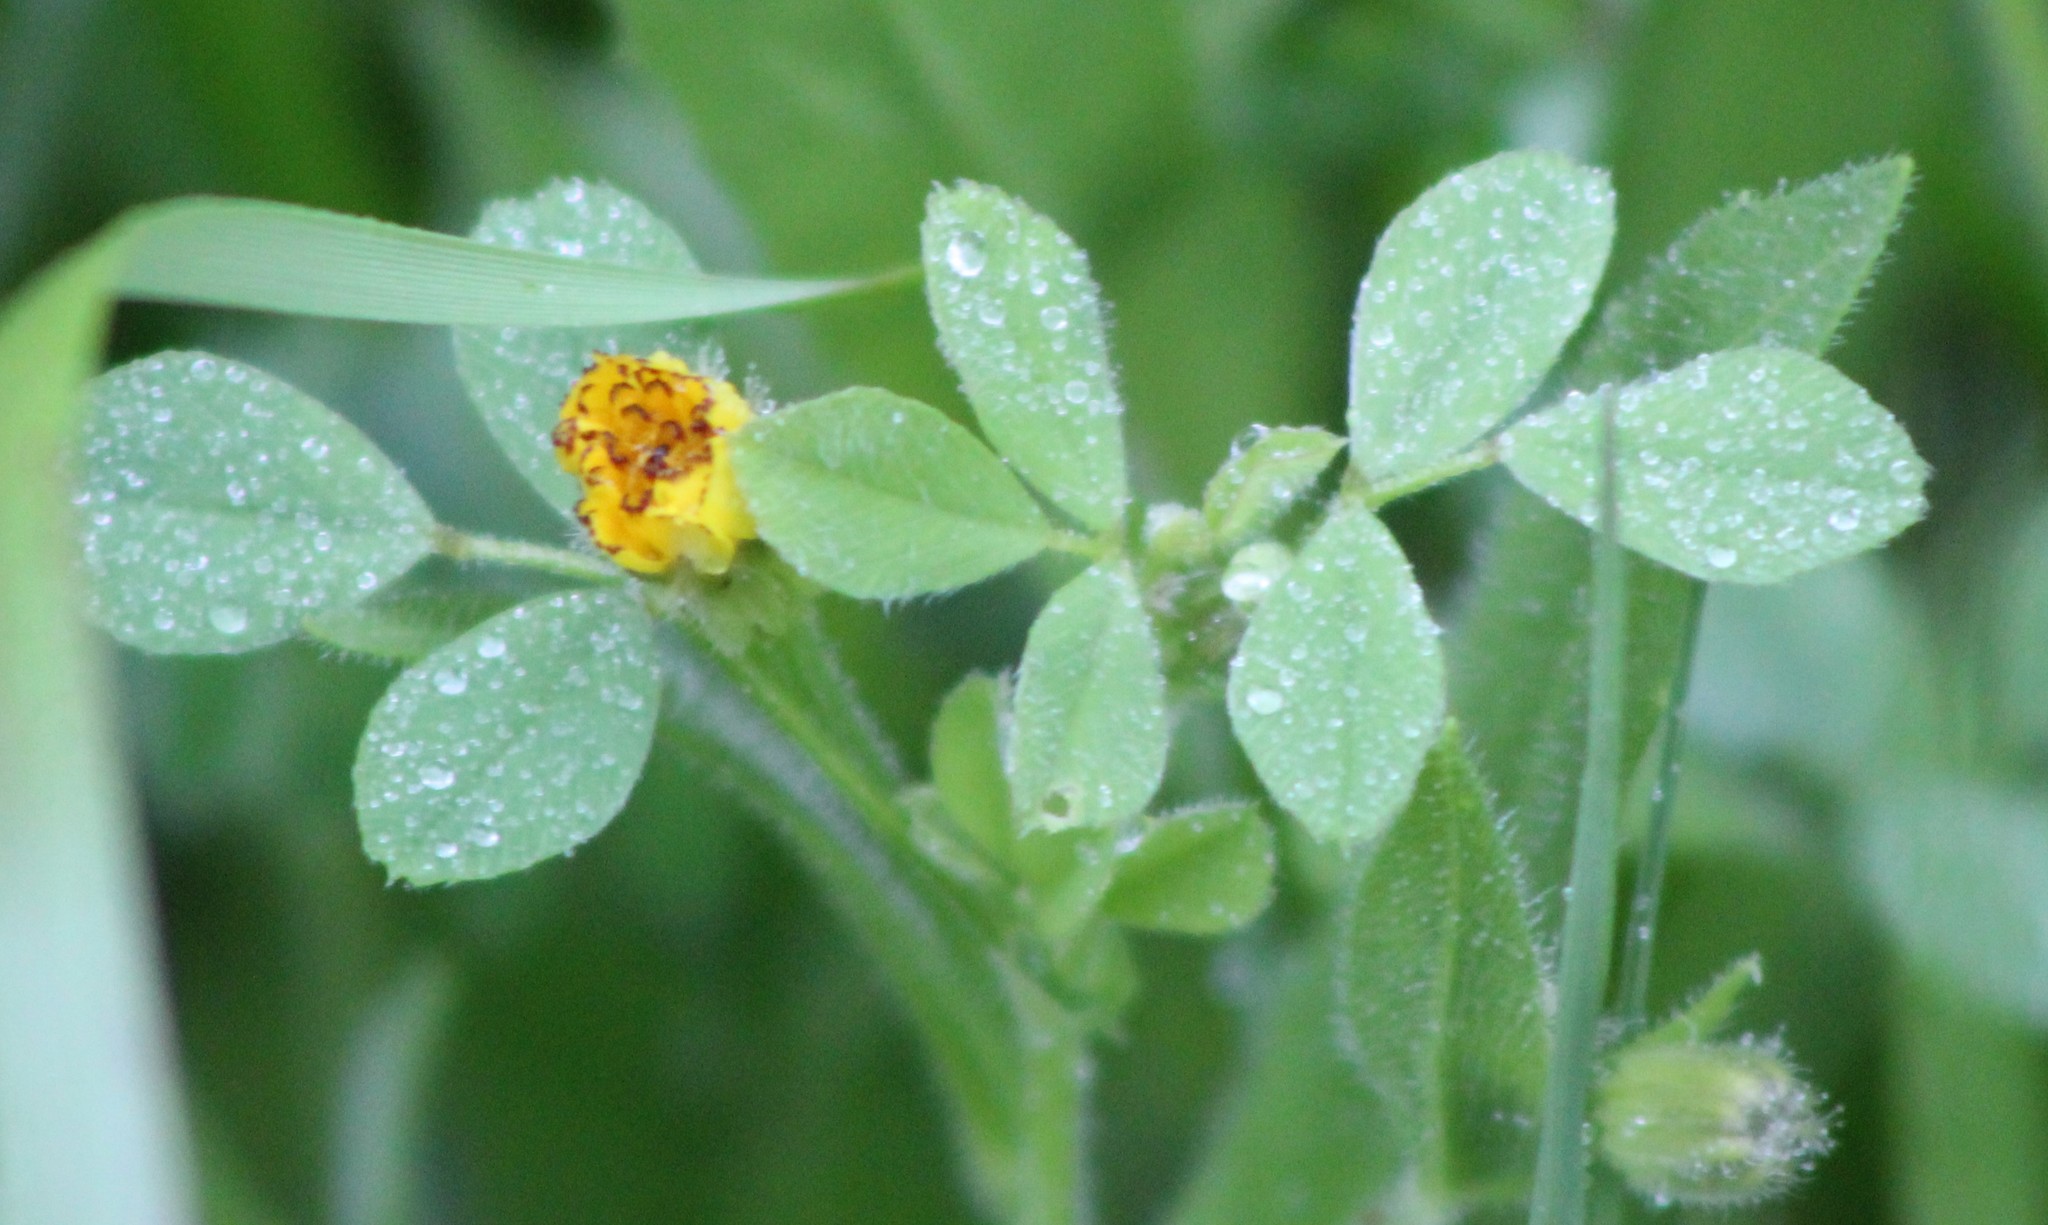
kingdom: Plantae
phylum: Tracheophyta
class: Magnoliopsida
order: Asterales
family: Asteraceae
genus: Hedypnois
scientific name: Hedypnois rhagadioloides
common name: Cretan weed
